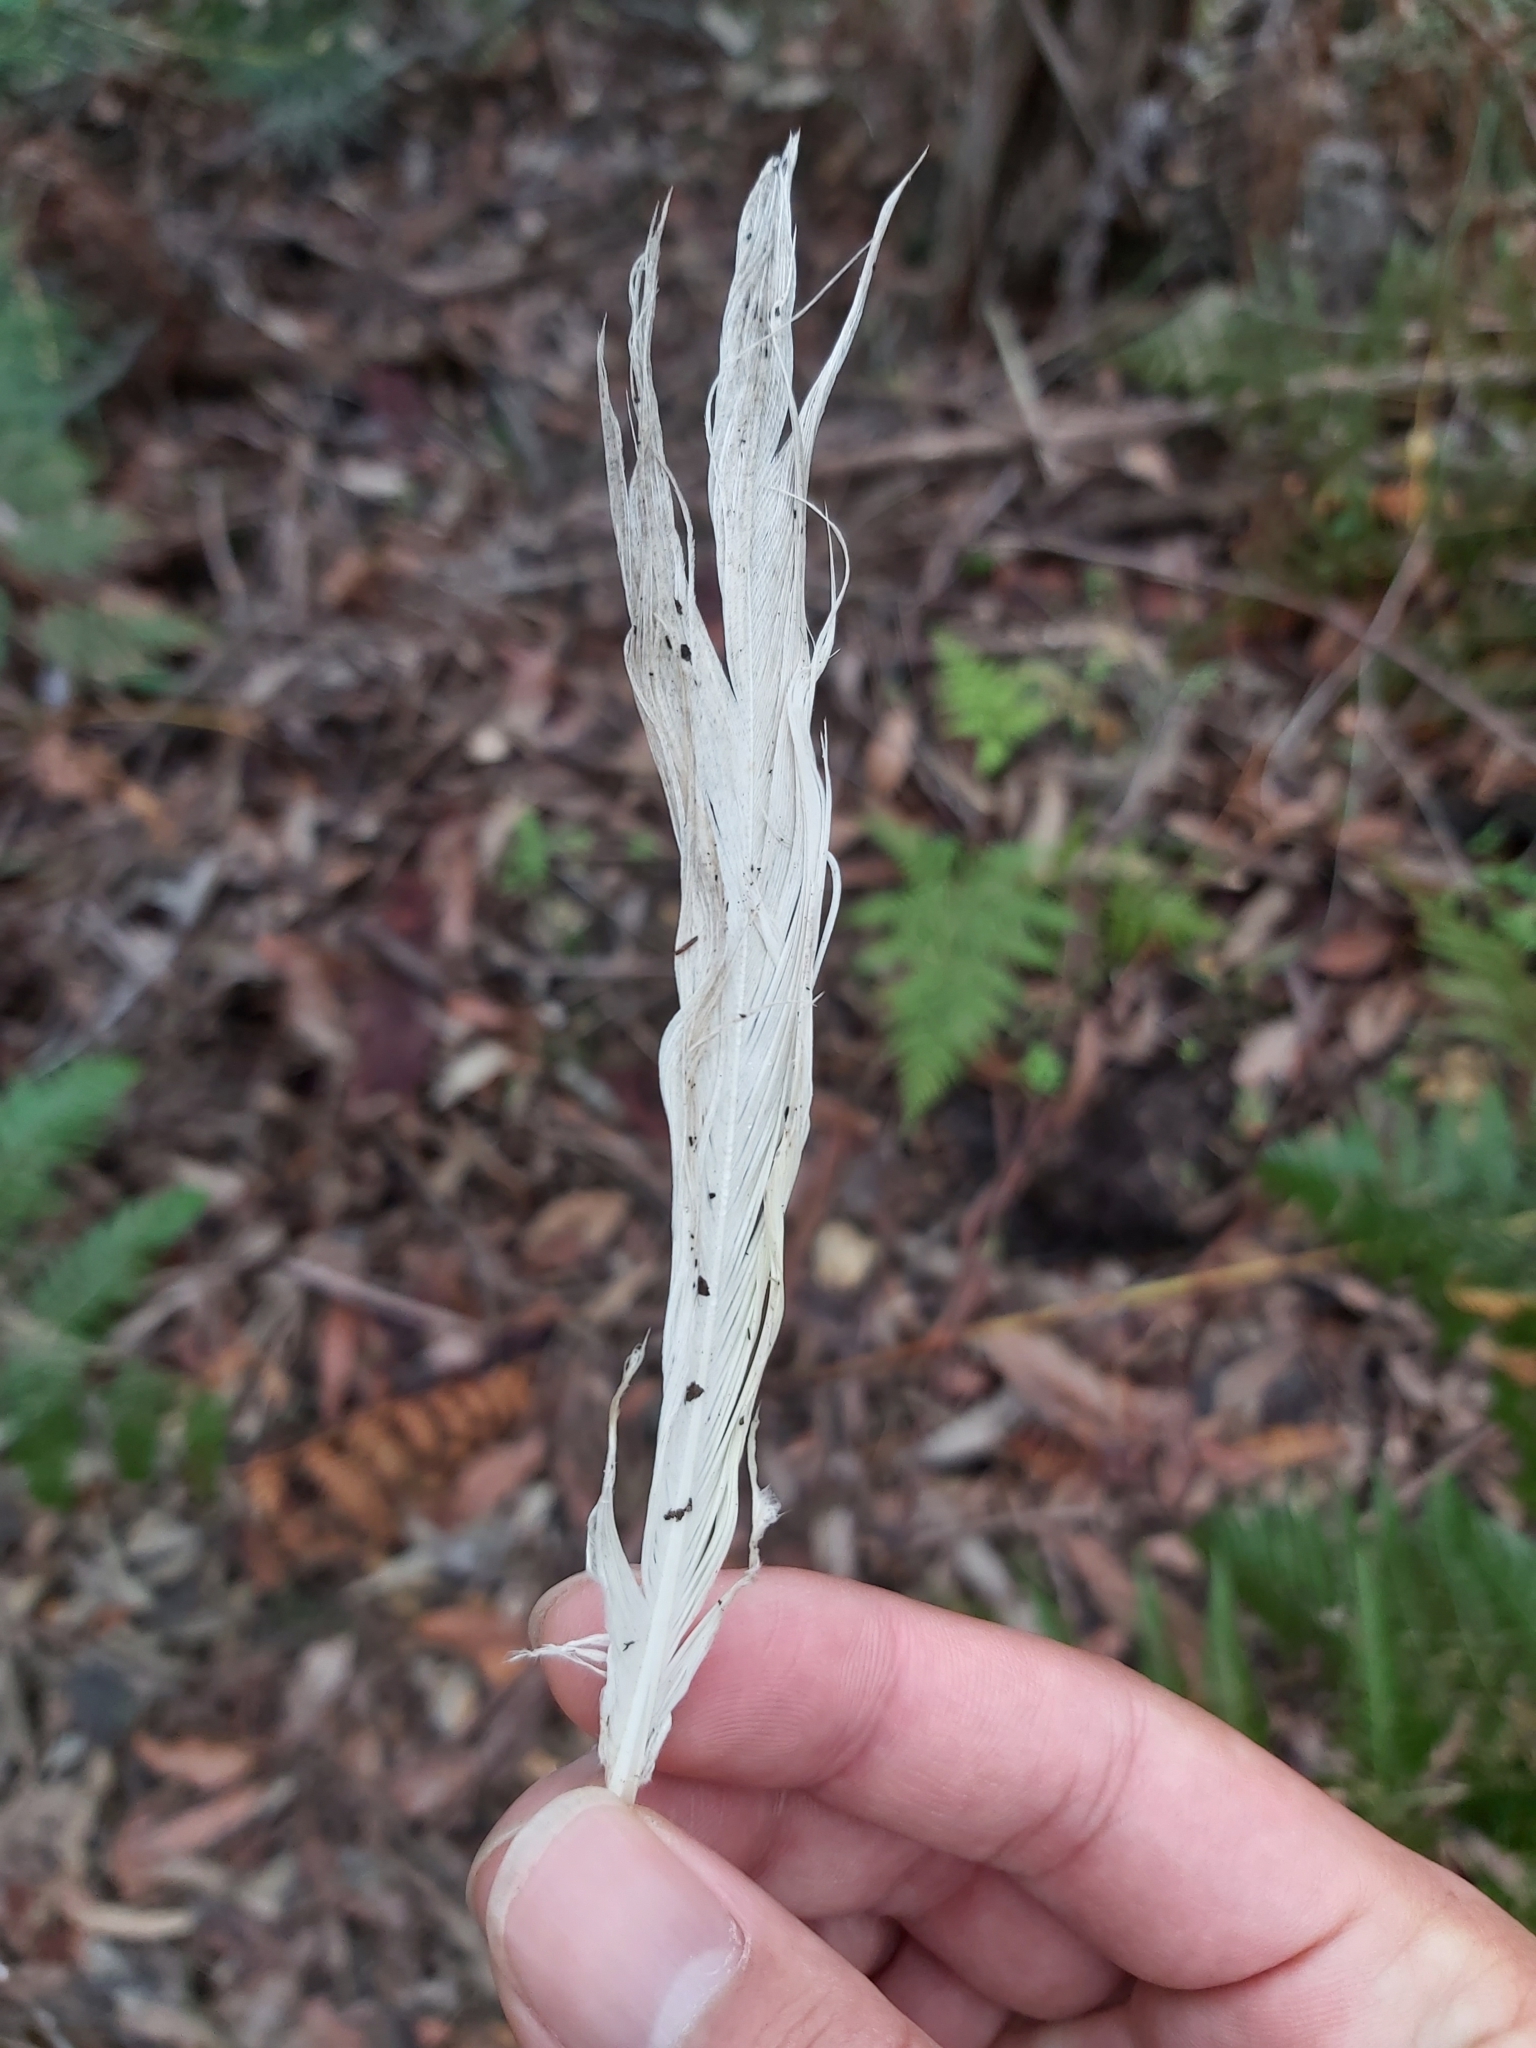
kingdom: Animalia
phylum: Chordata
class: Aves
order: Psittaciformes
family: Psittacidae
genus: Cacatua
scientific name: Cacatua galerita
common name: Sulphur-crested cockatoo
